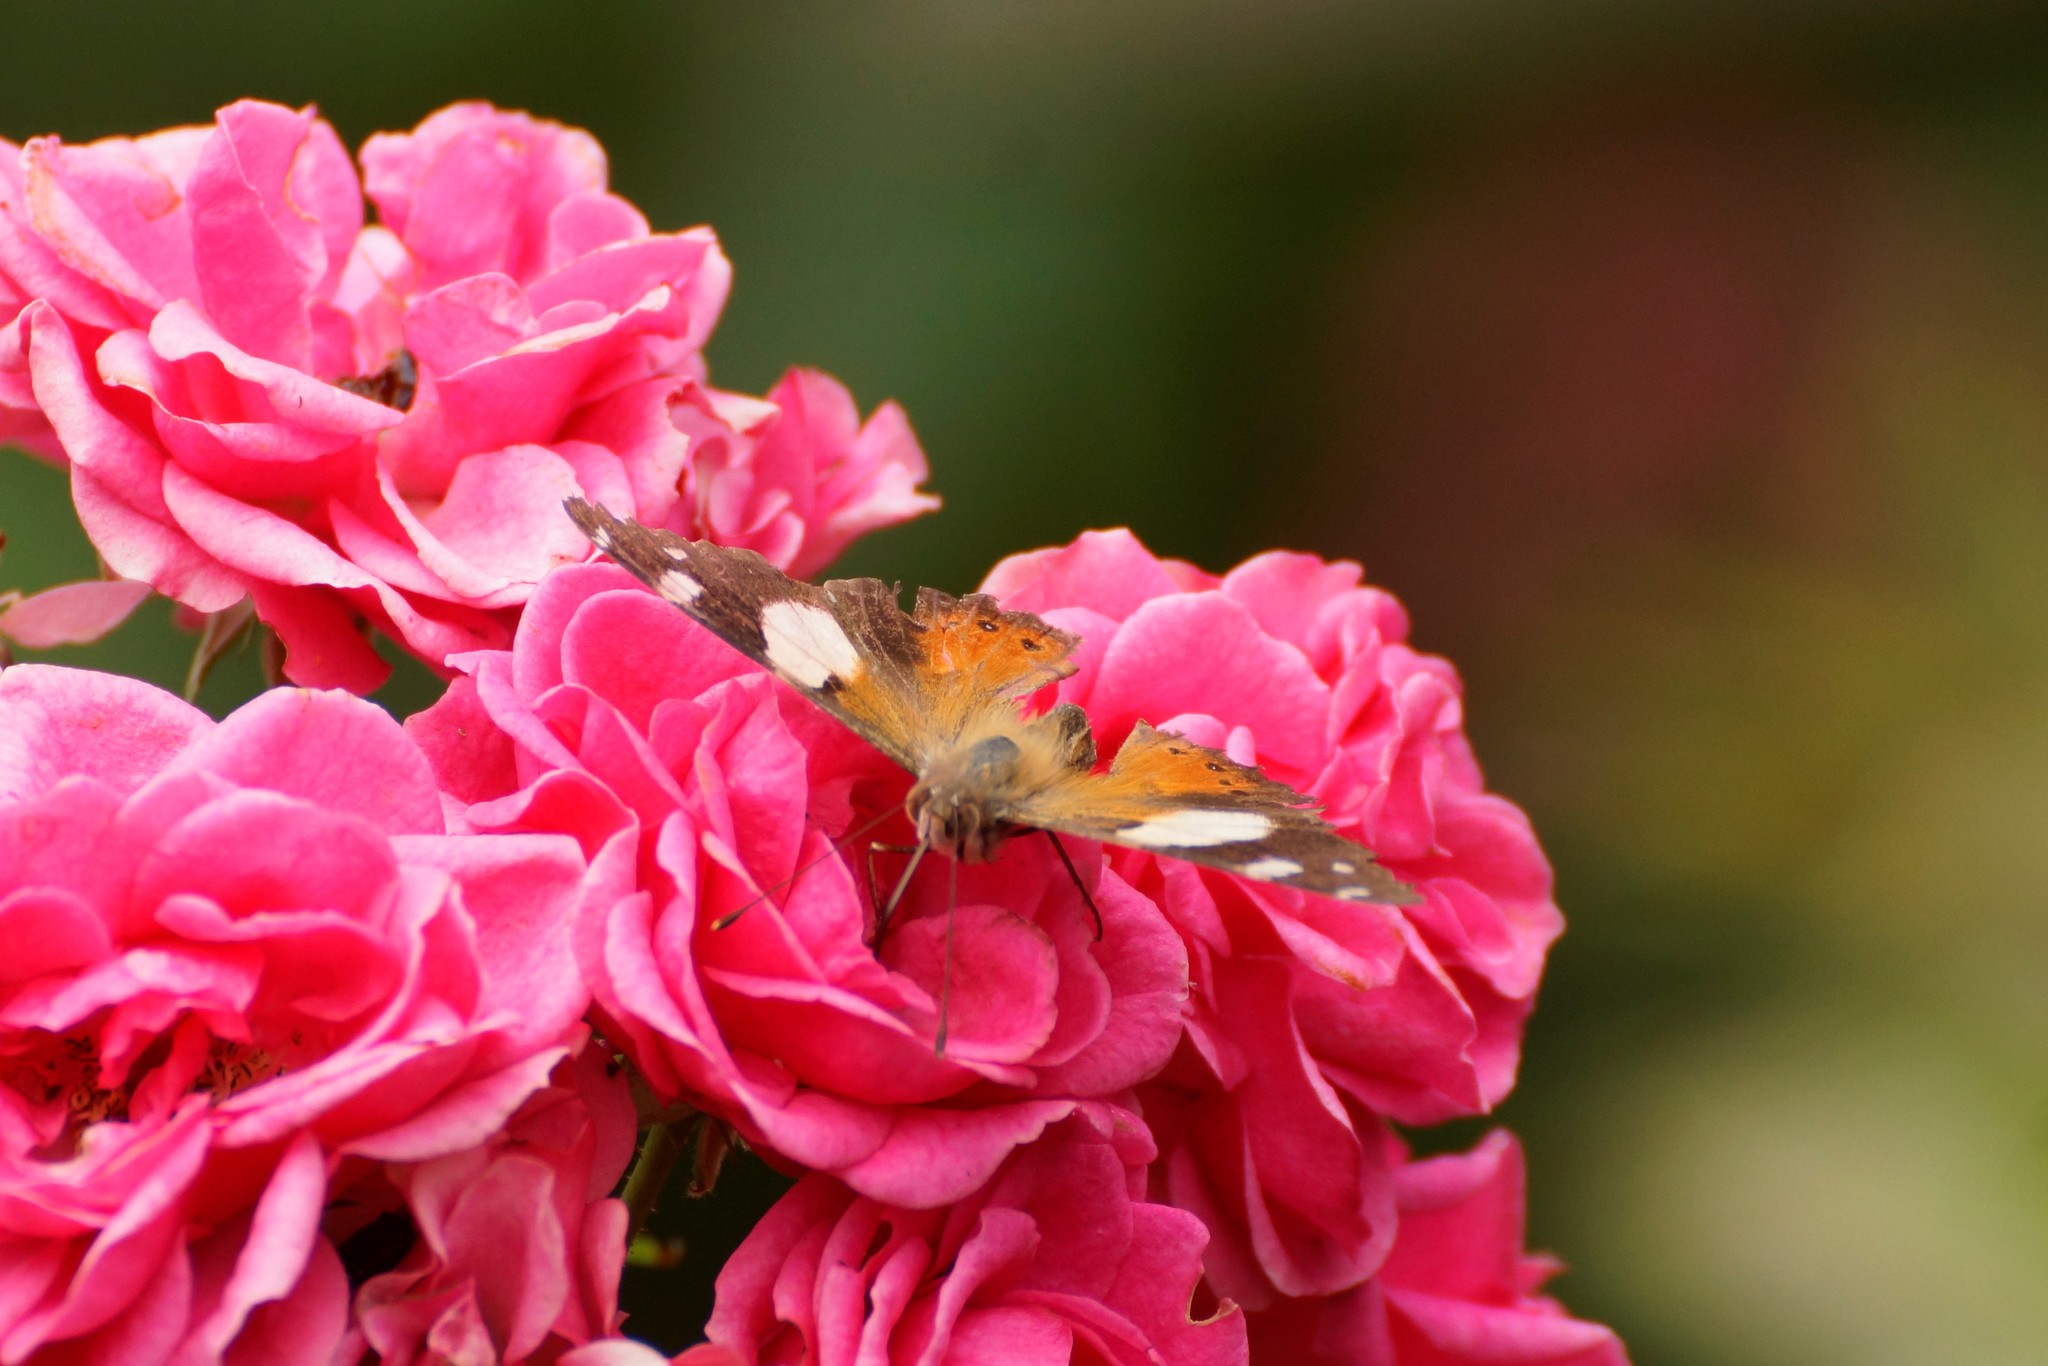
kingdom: Animalia
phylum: Arthropoda
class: Insecta
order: Lepidoptera
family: Nymphalidae
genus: Vanessa
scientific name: Vanessa itea
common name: Yellow admiral
